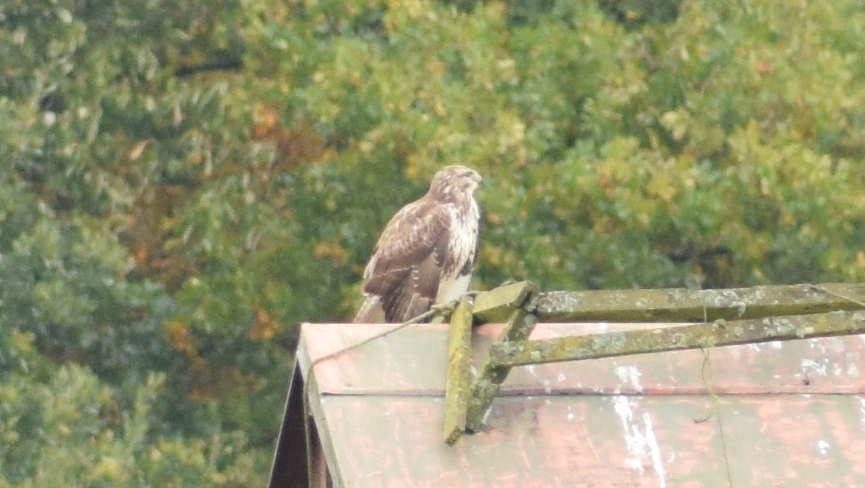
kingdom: Animalia
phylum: Chordata
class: Aves
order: Accipitriformes
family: Accipitridae
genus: Buteo
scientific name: Buteo buteo
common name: Common buzzard
